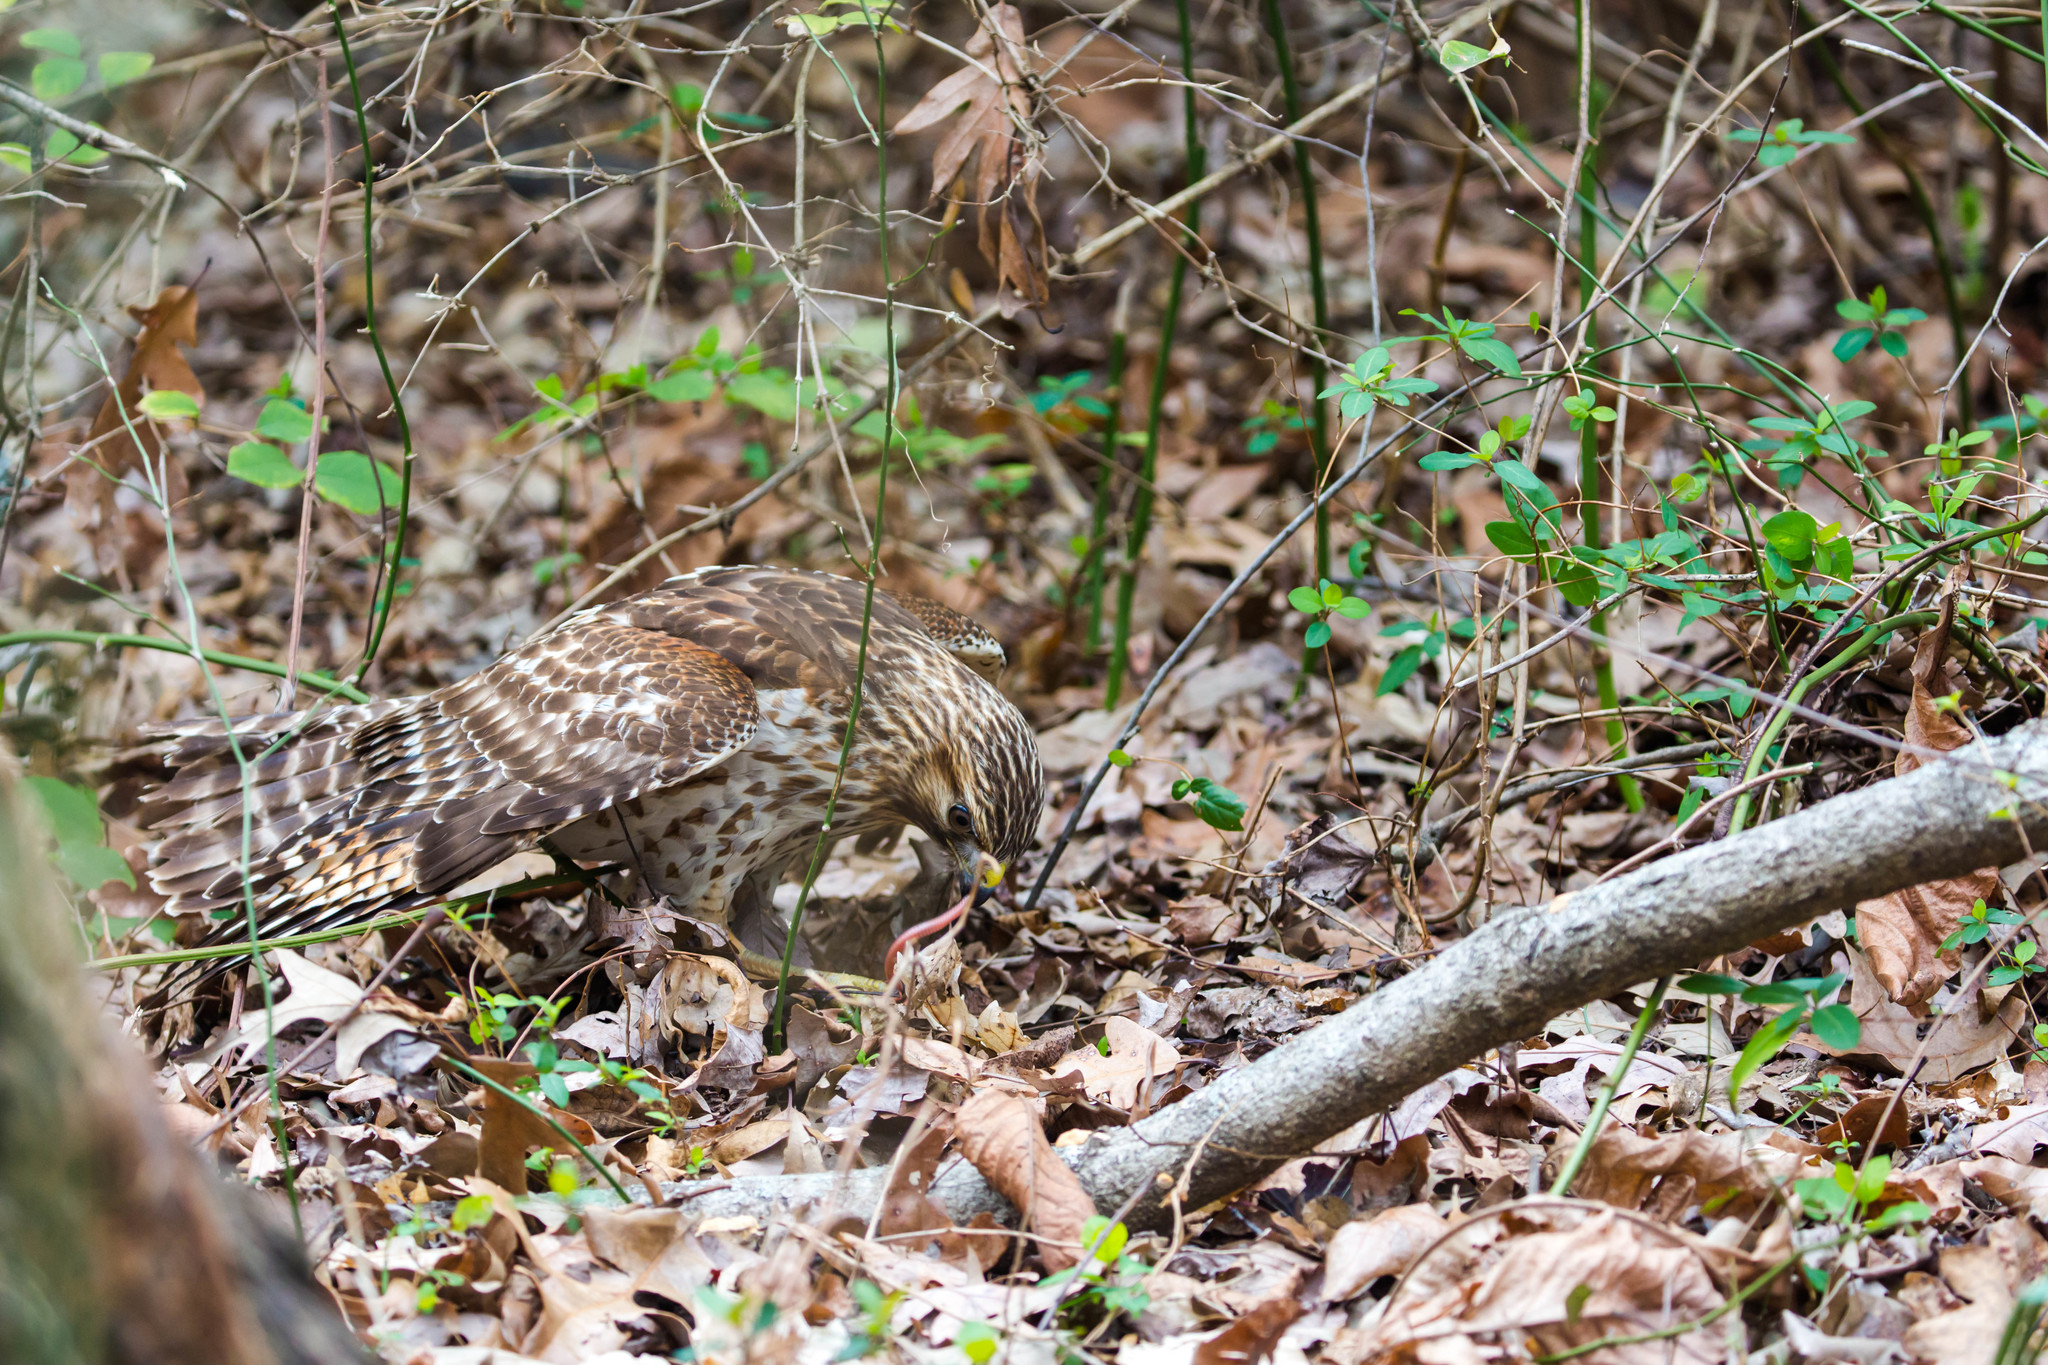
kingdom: Animalia
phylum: Chordata
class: Aves
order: Accipitriformes
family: Accipitridae
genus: Buteo
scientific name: Buteo lineatus
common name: Red-shouldered hawk
